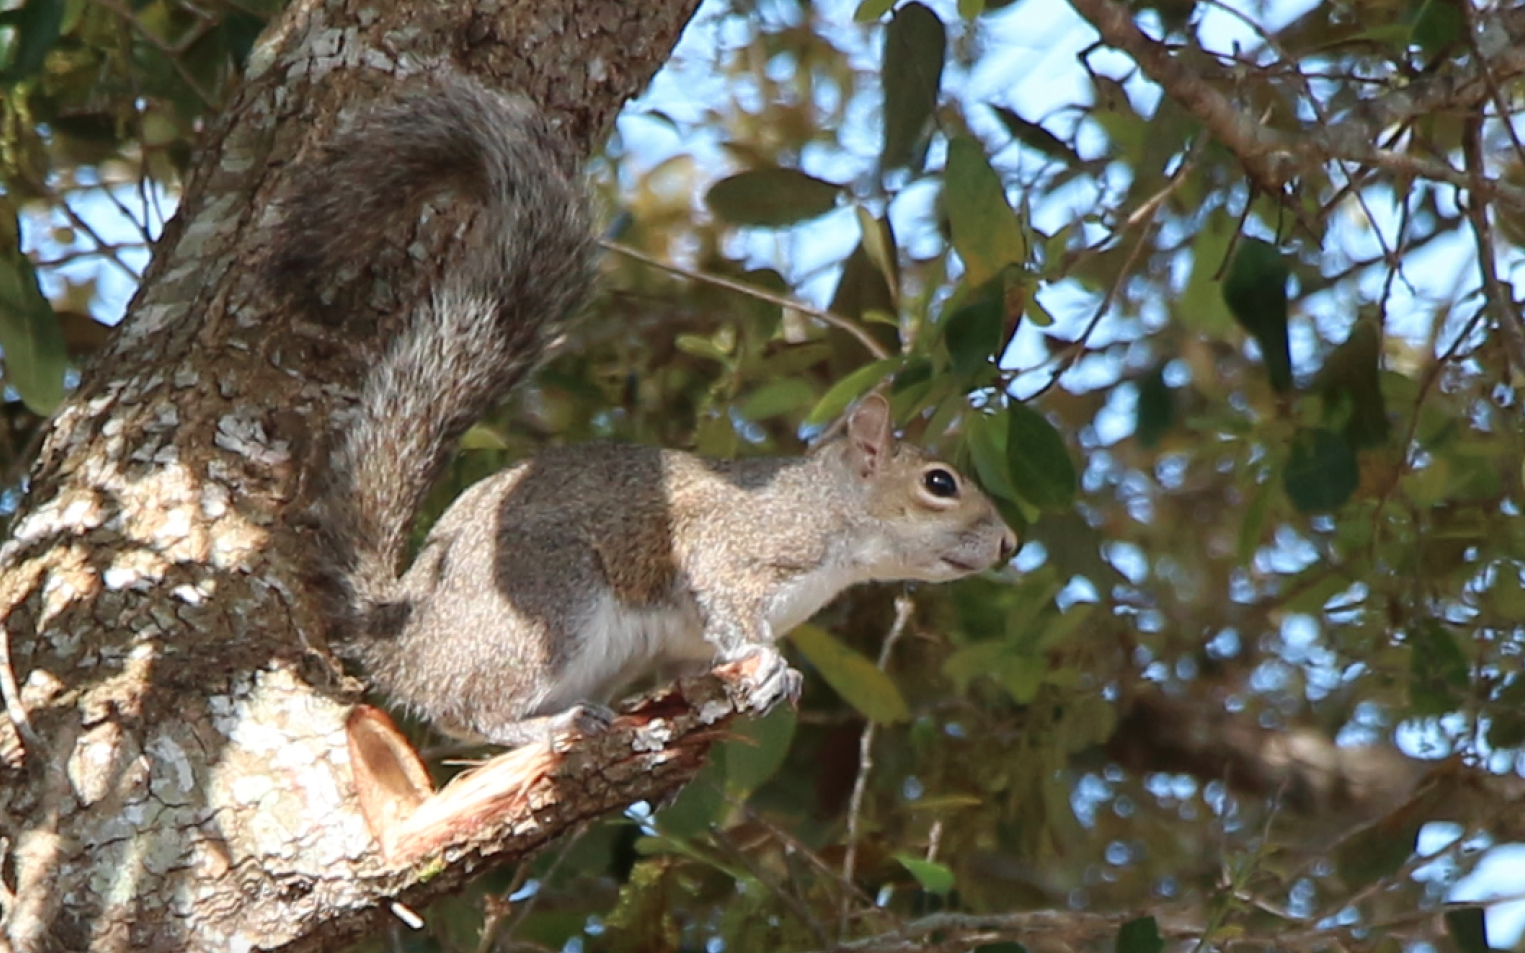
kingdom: Animalia
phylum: Chordata
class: Mammalia
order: Rodentia
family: Sciuridae
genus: Sciurus
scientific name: Sciurus carolinensis
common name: Eastern gray squirrel
